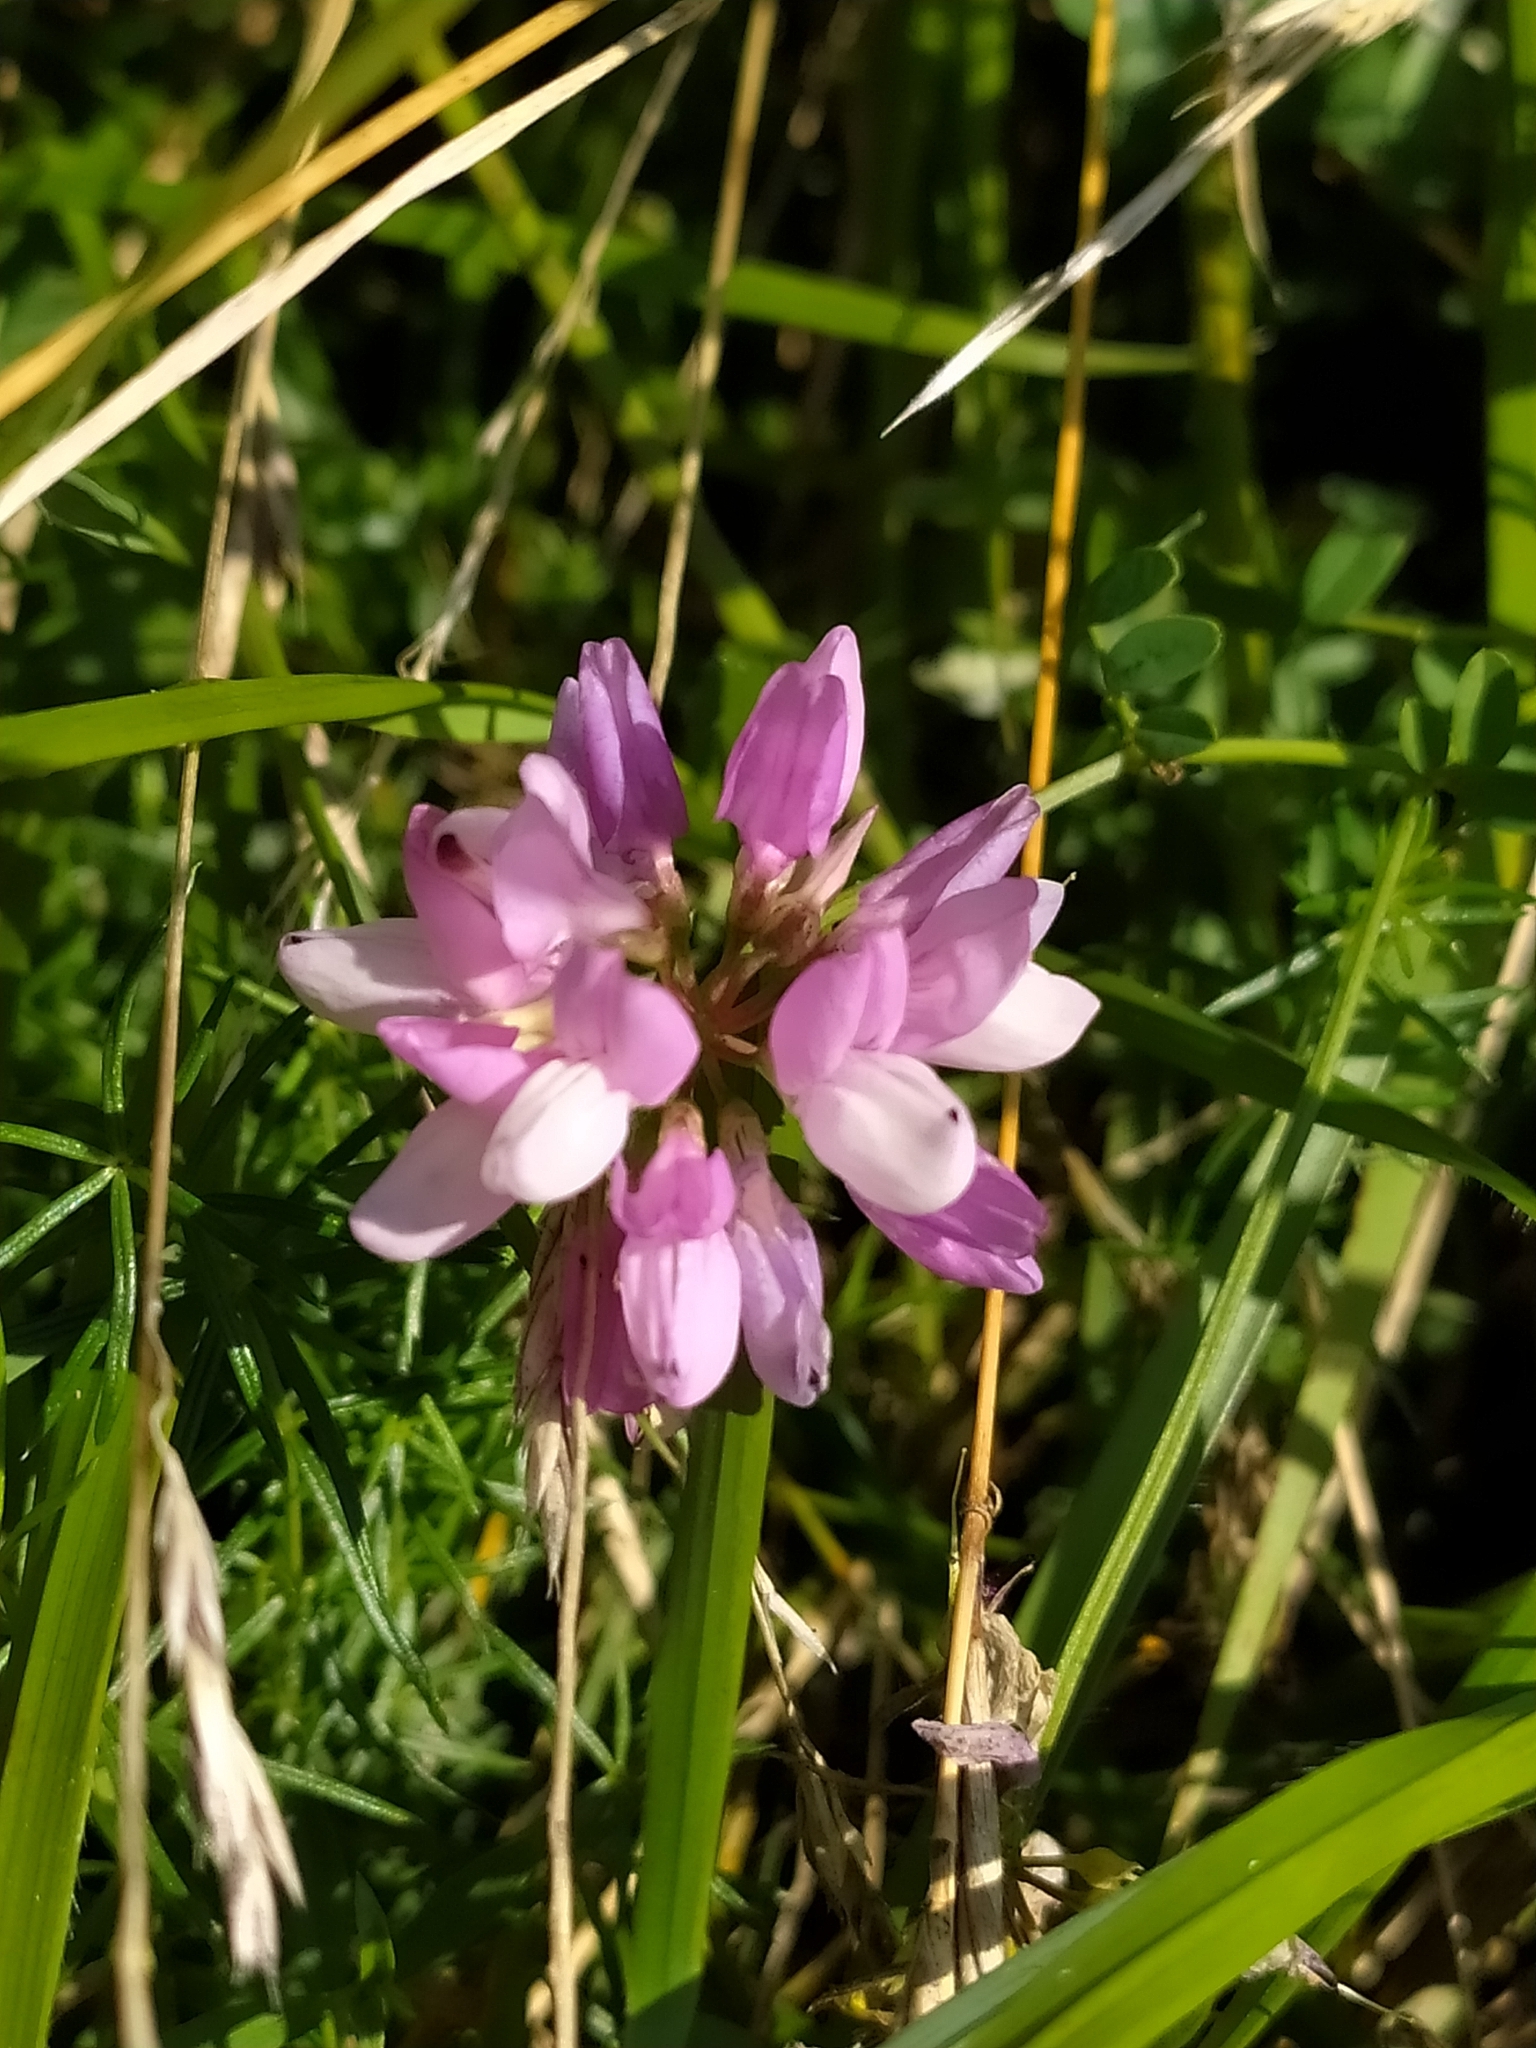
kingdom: Plantae
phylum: Tracheophyta
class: Magnoliopsida
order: Fabales
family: Fabaceae
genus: Coronilla
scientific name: Coronilla varia
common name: Crownvetch
